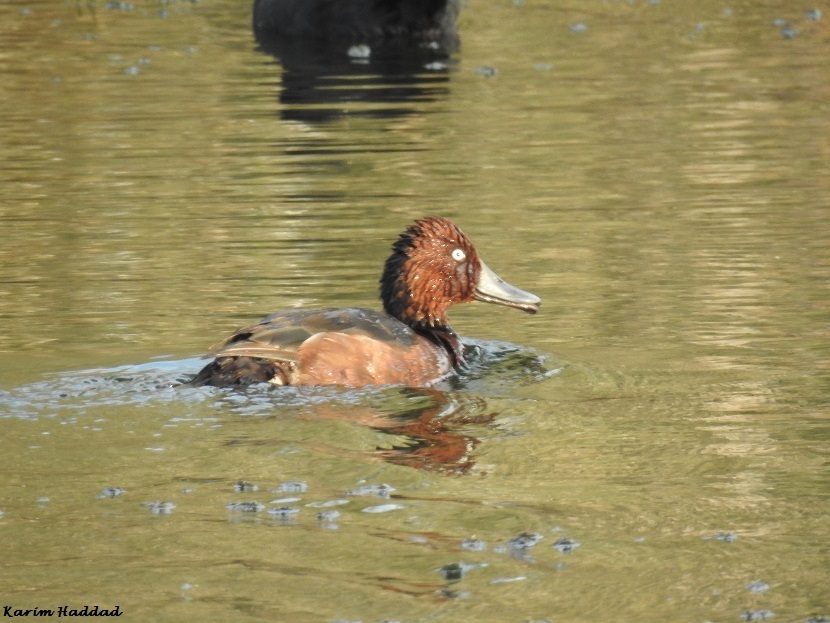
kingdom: Animalia
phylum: Chordata
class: Aves
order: Anseriformes
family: Anatidae
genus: Aythya
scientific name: Aythya nyroca
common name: Ferruginous duck
